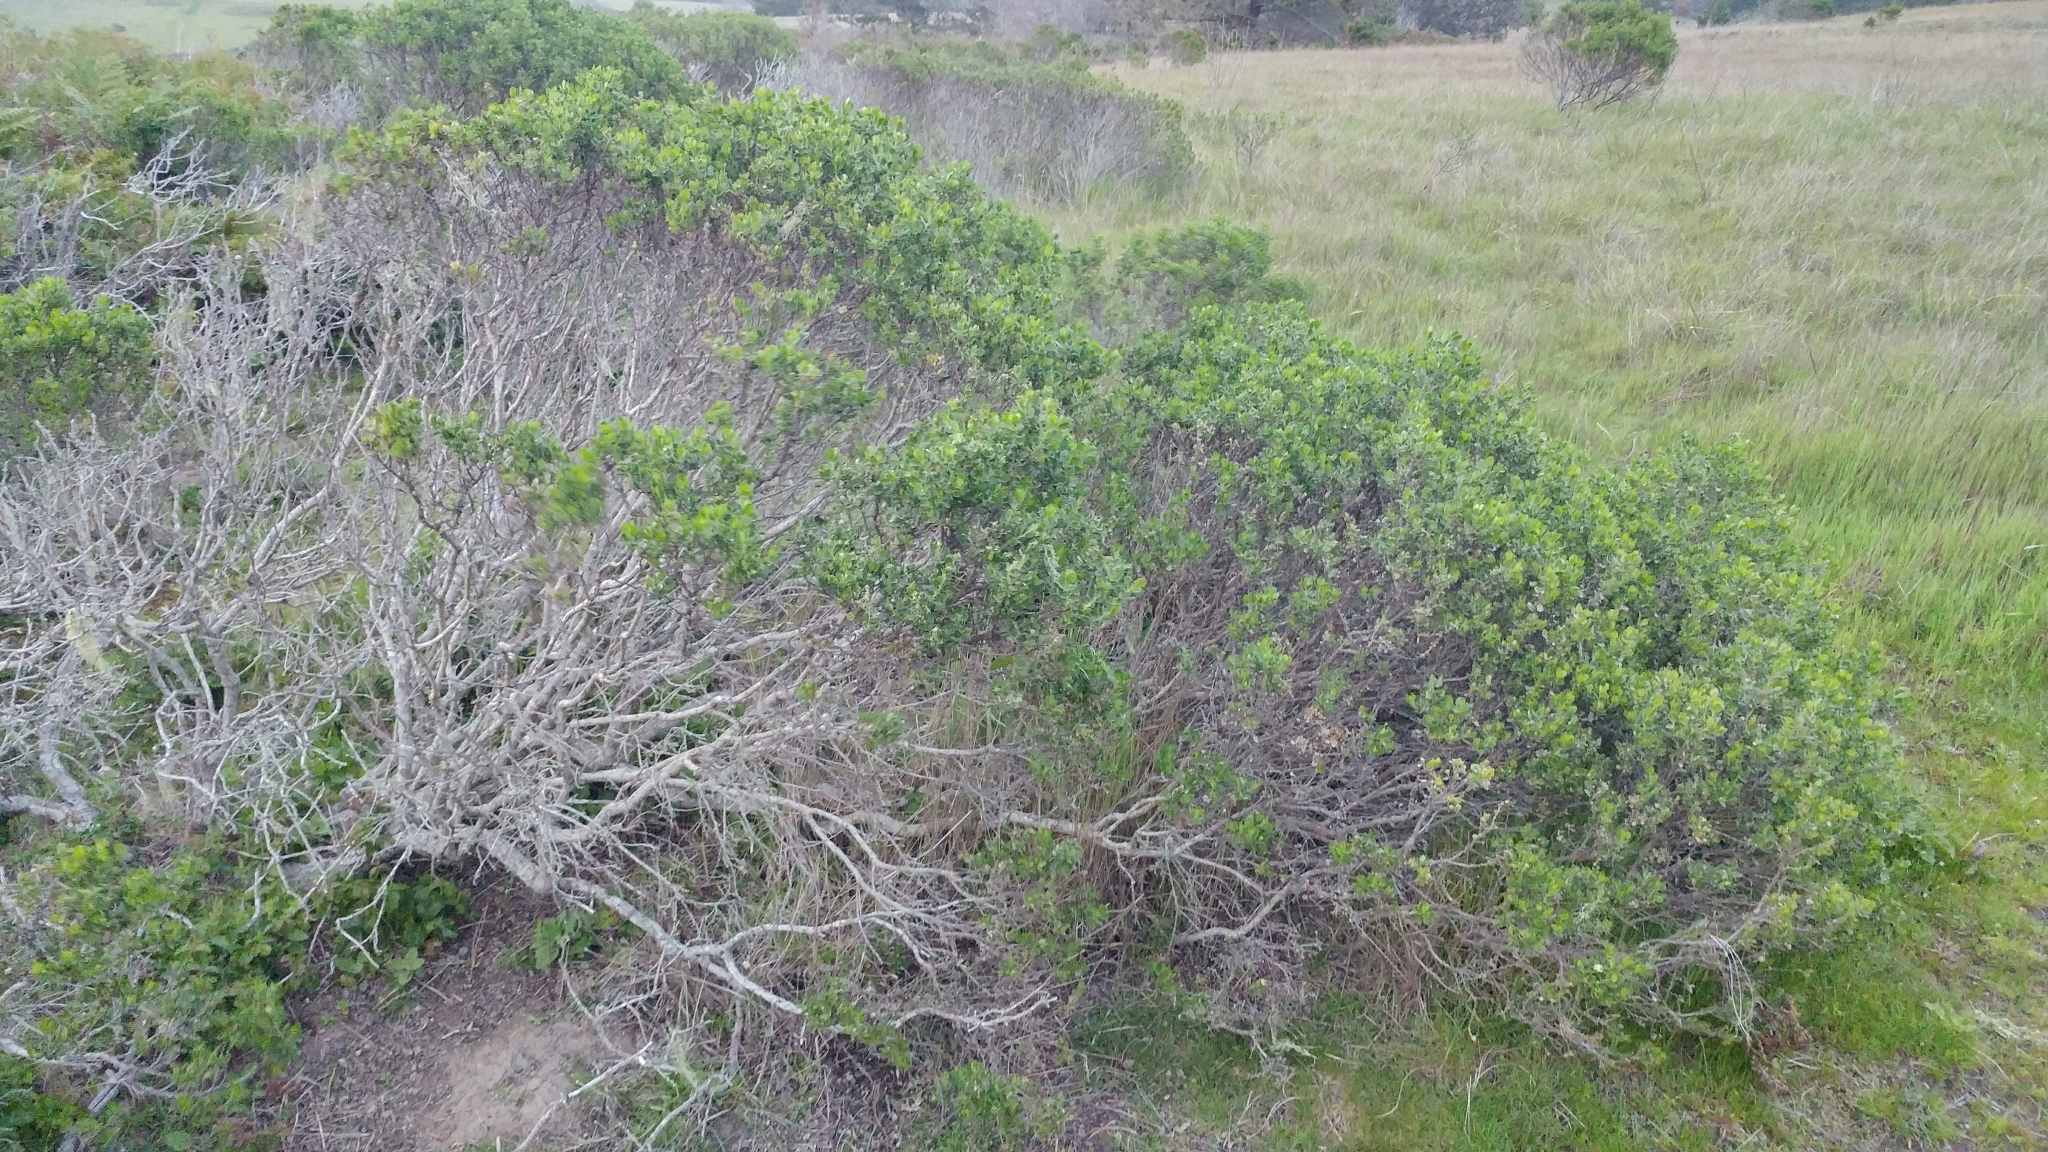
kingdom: Plantae
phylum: Tracheophyta
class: Magnoliopsida
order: Asterales
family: Asteraceae
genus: Baccharis
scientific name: Baccharis pilularis
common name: Coyotebrush
